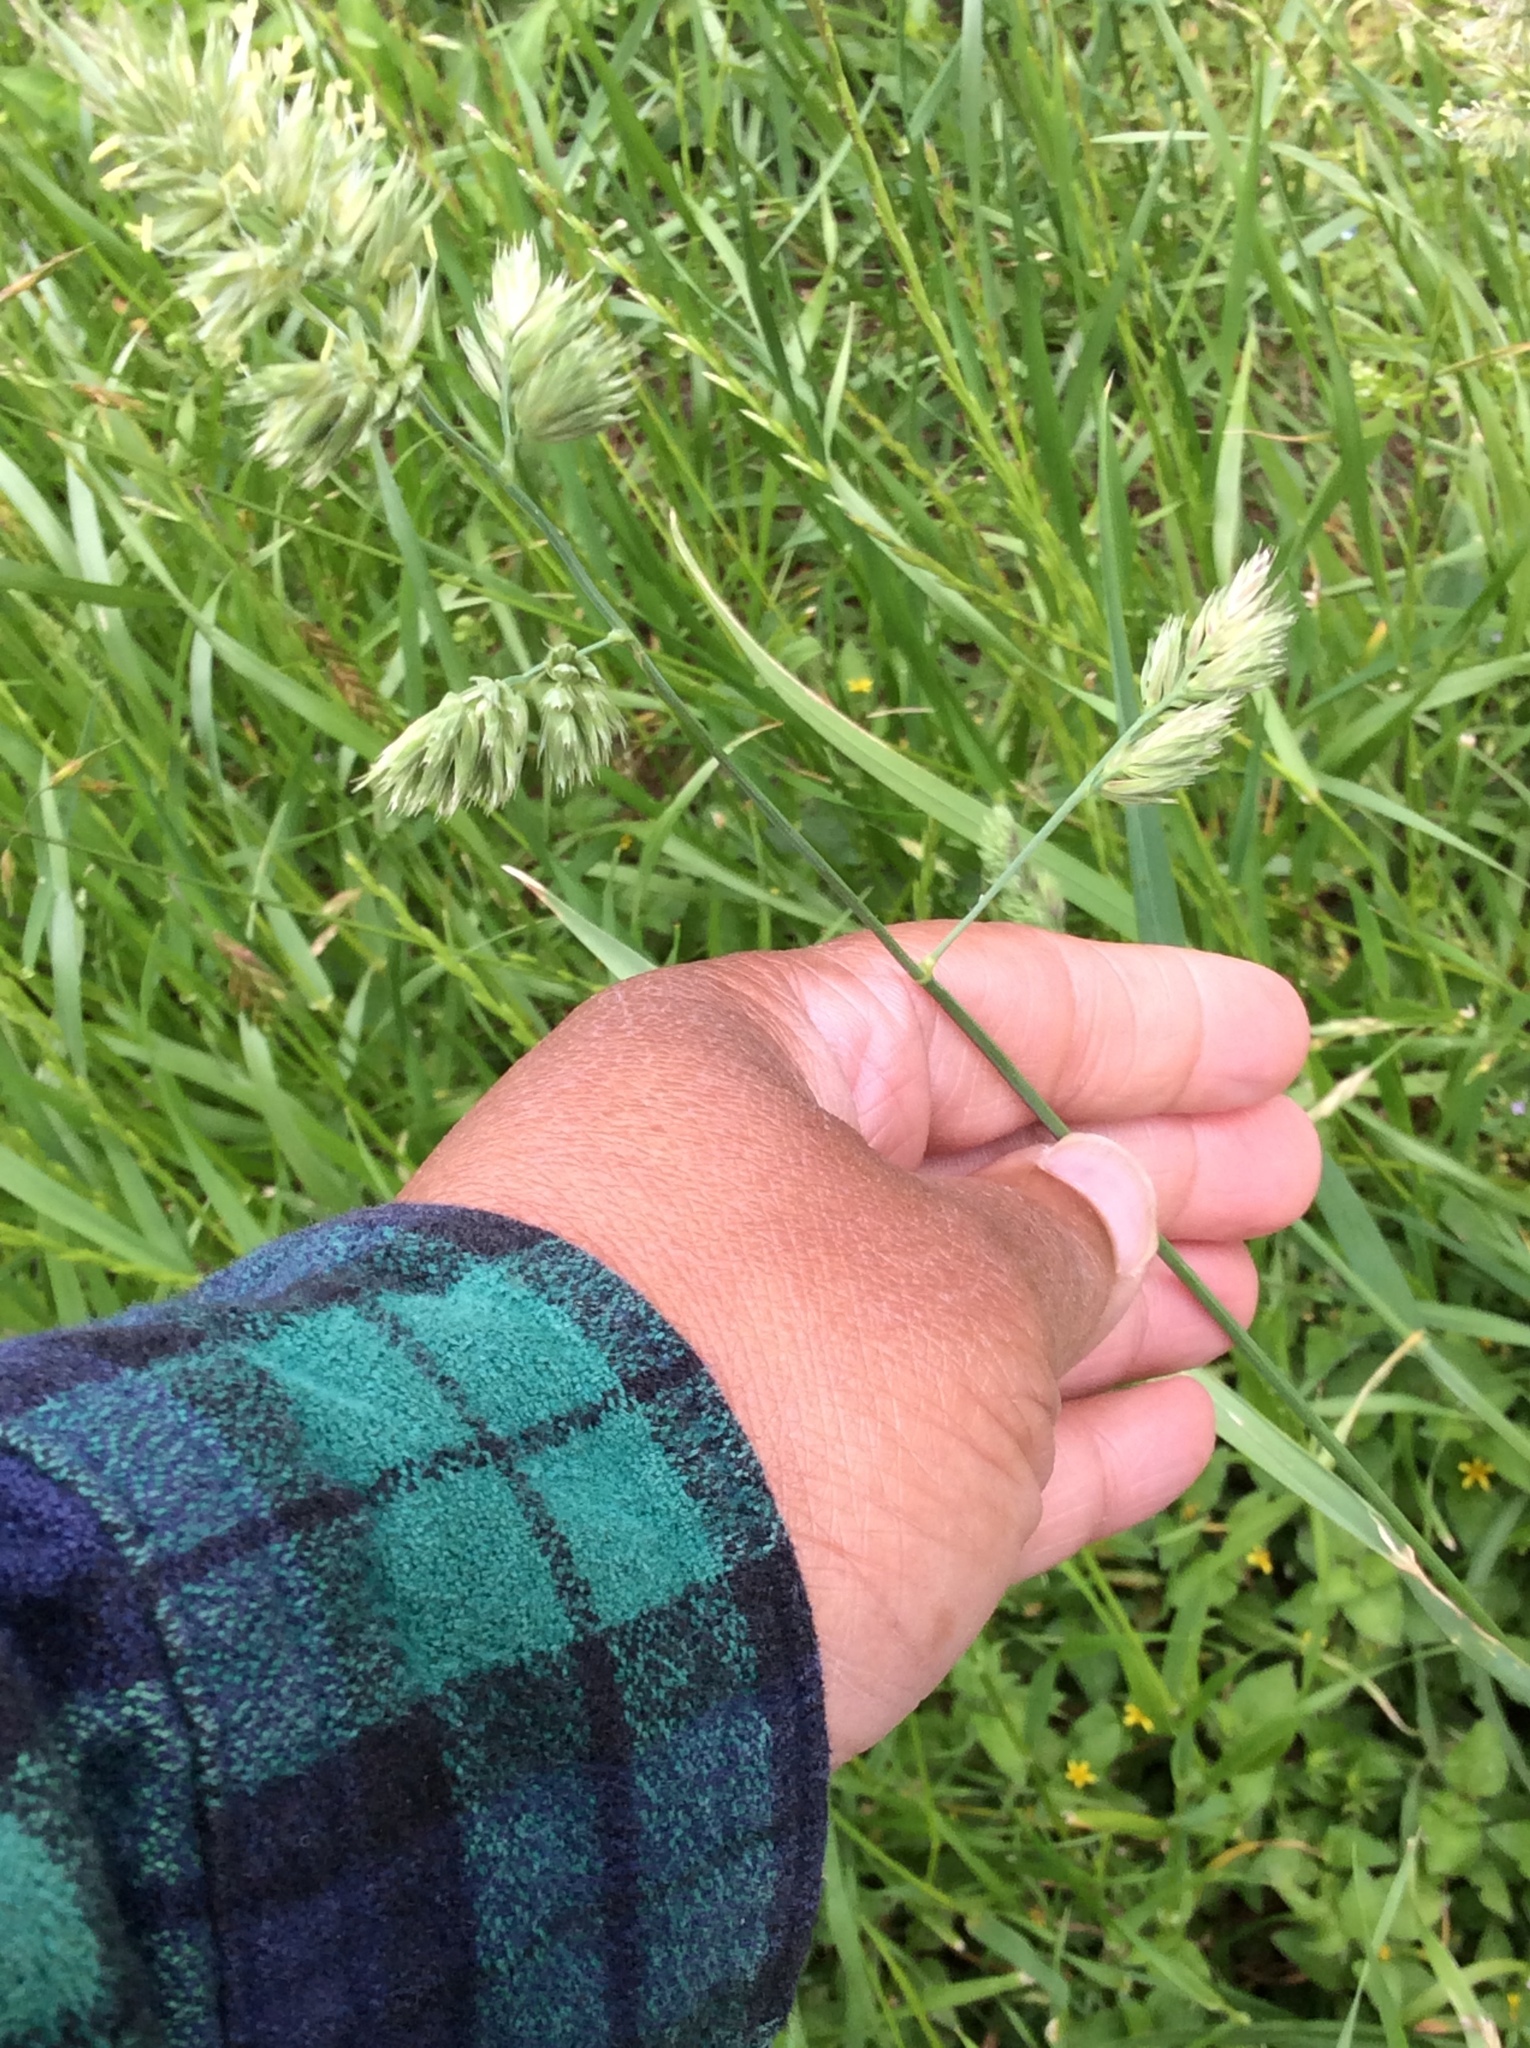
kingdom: Plantae
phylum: Tracheophyta
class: Liliopsida
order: Poales
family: Poaceae
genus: Dactylis
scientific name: Dactylis glomerata
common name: Orchardgrass
